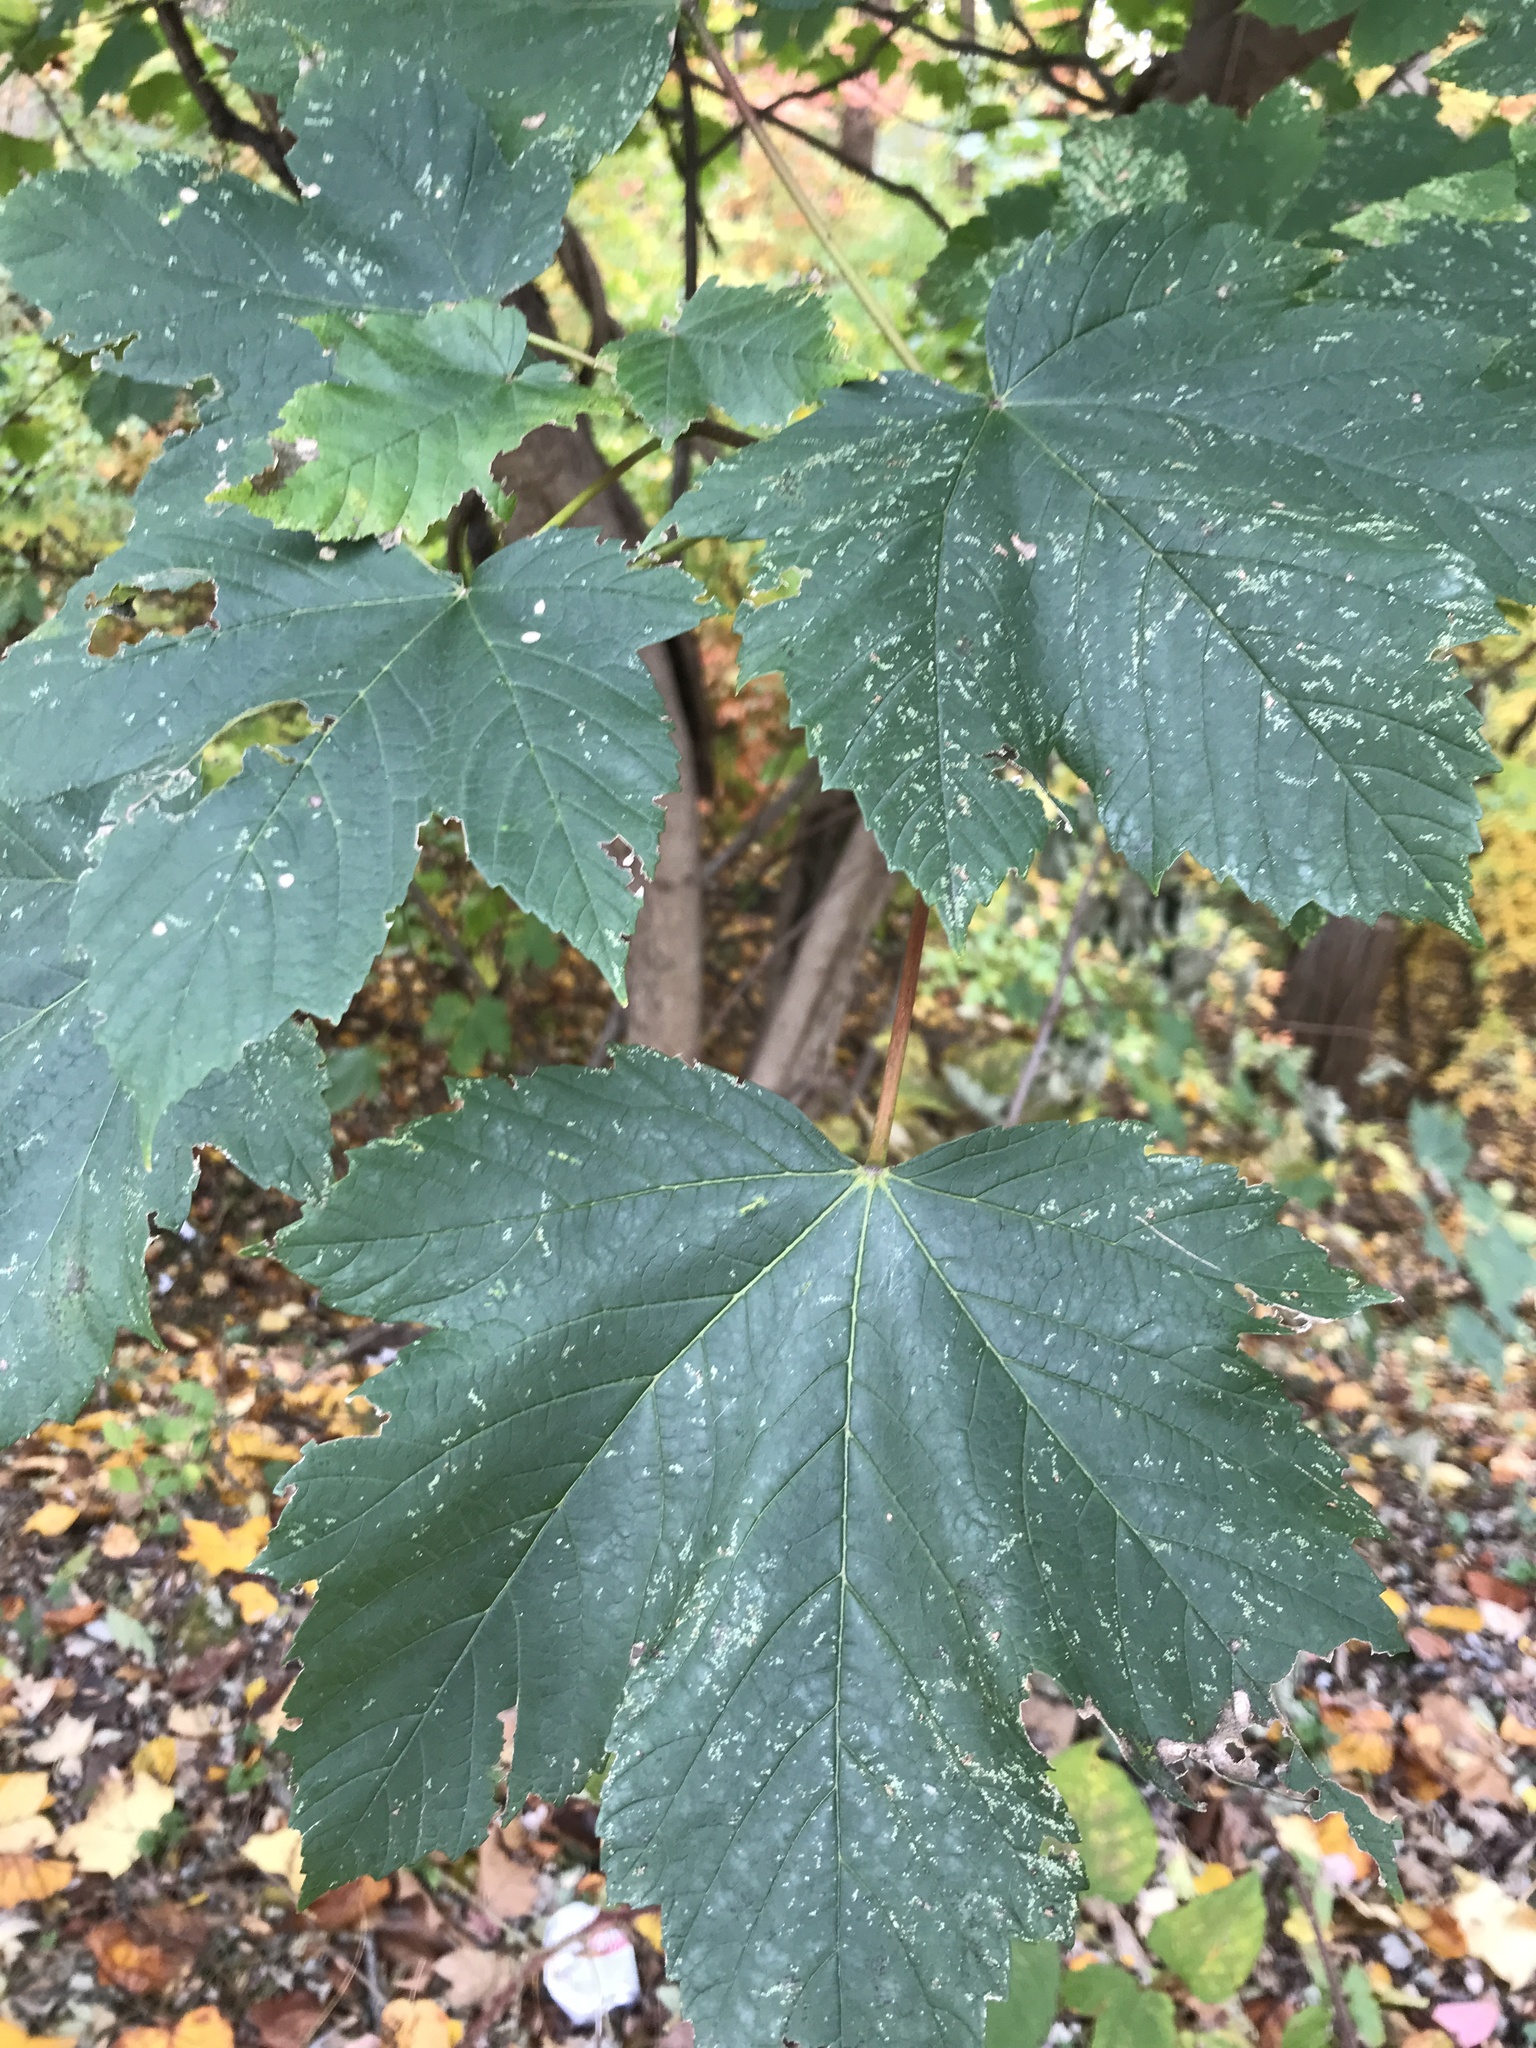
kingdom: Plantae
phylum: Tracheophyta
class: Magnoliopsida
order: Sapindales
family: Sapindaceae
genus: Acer
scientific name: Acer pseudoplatanus
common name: Sycamore
